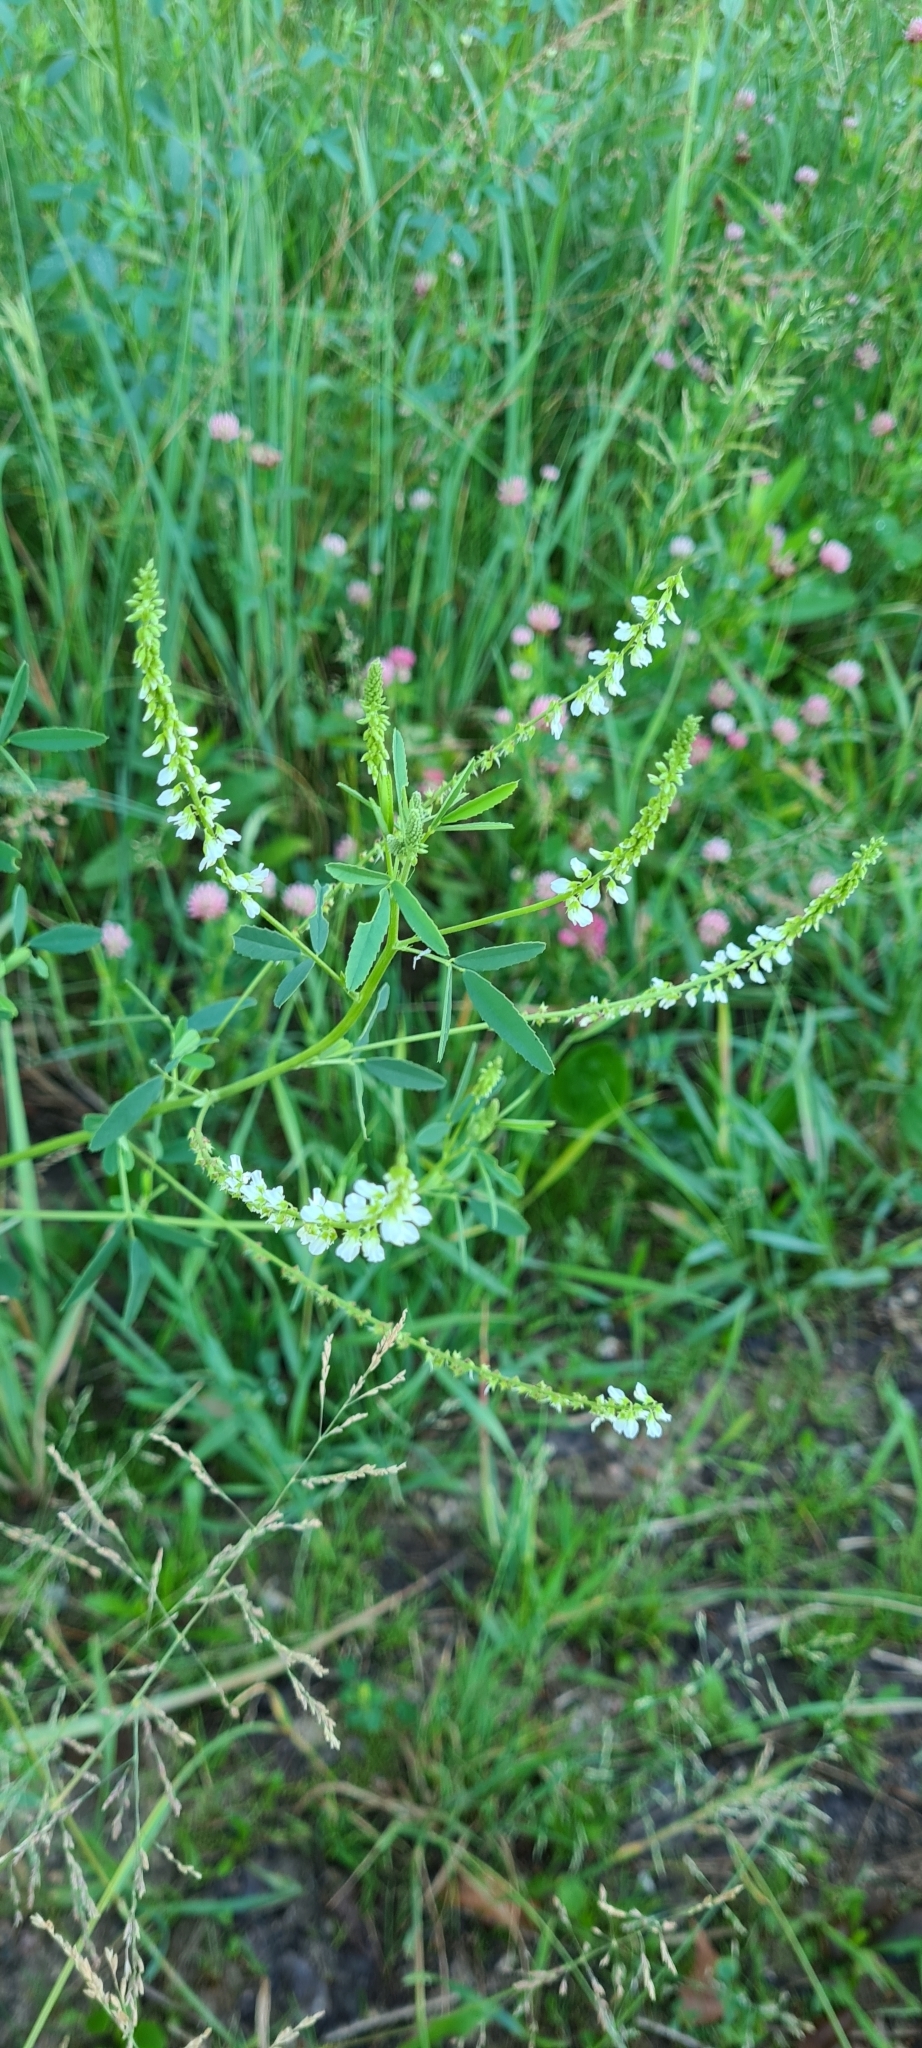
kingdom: Plantae
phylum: Tracheophyta
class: Magnoliopsida
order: Fabales
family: Fabaceae
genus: Melilotus
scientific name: Melilotus albus
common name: White melilot
